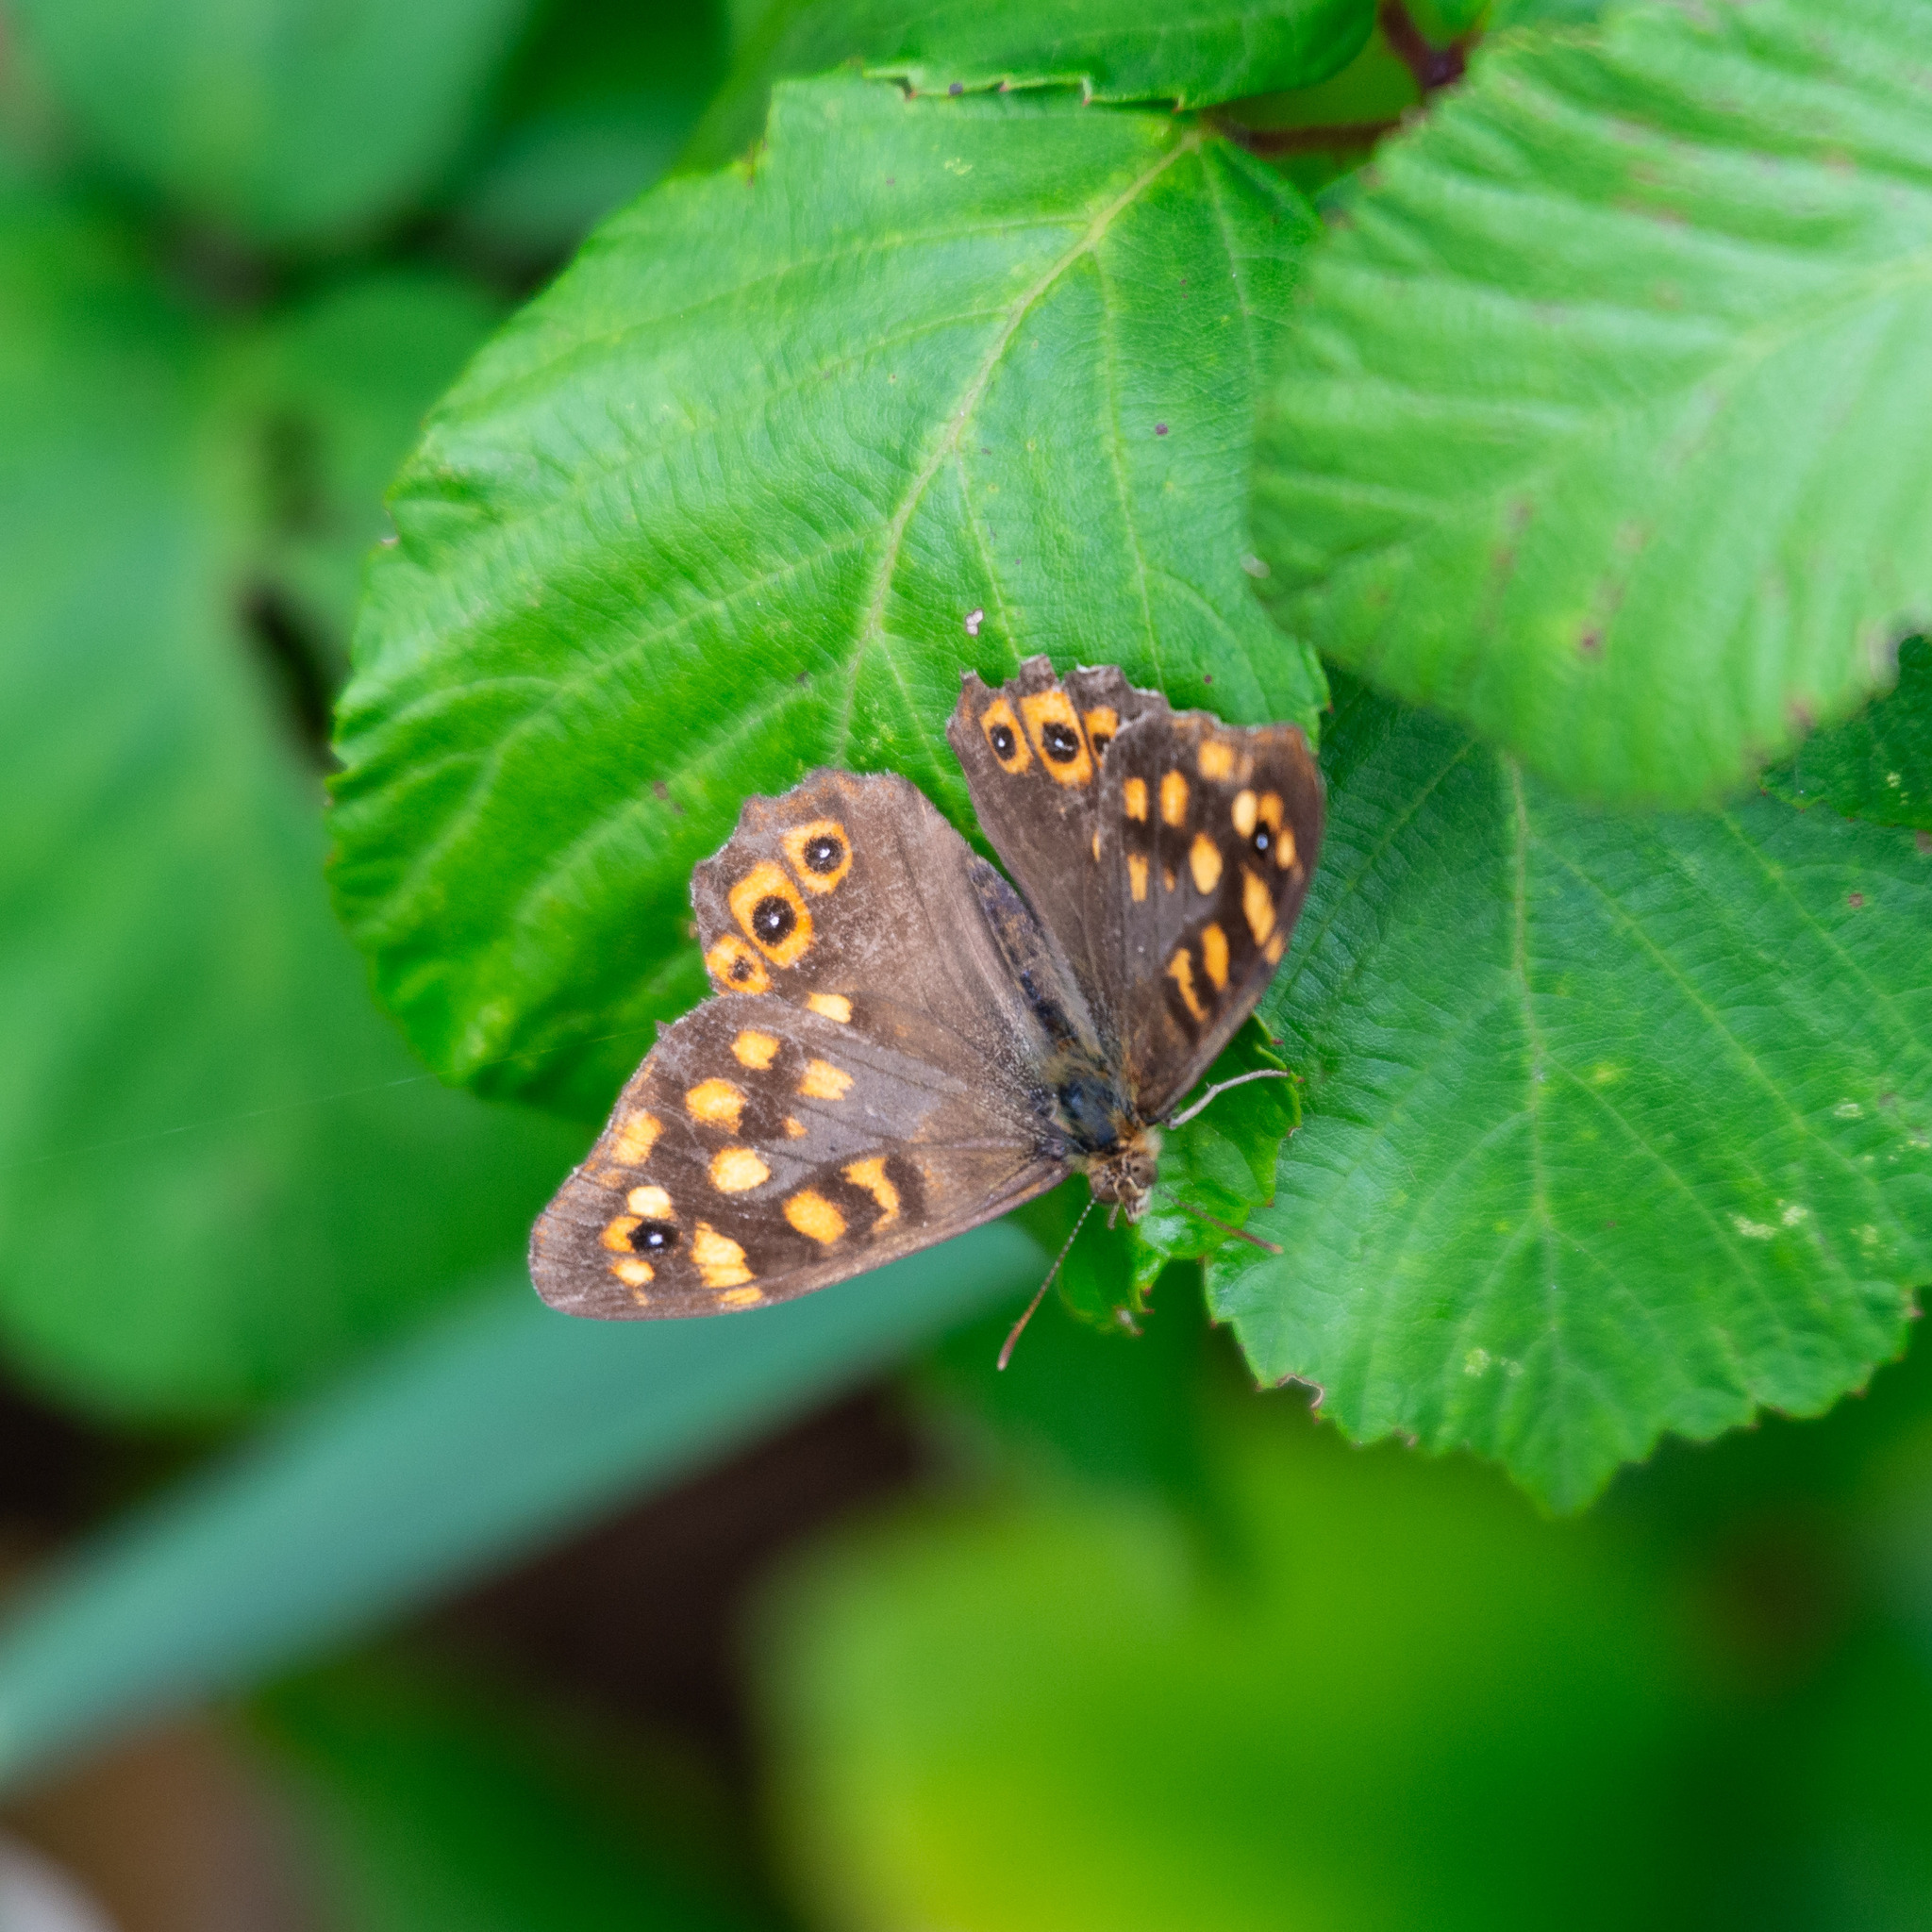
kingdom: Animalia
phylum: Arthropoda
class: Insecta
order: Lepidoptera
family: Nymphalidae
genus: Pararge
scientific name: Pararge aegeria
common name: Speckled wood
